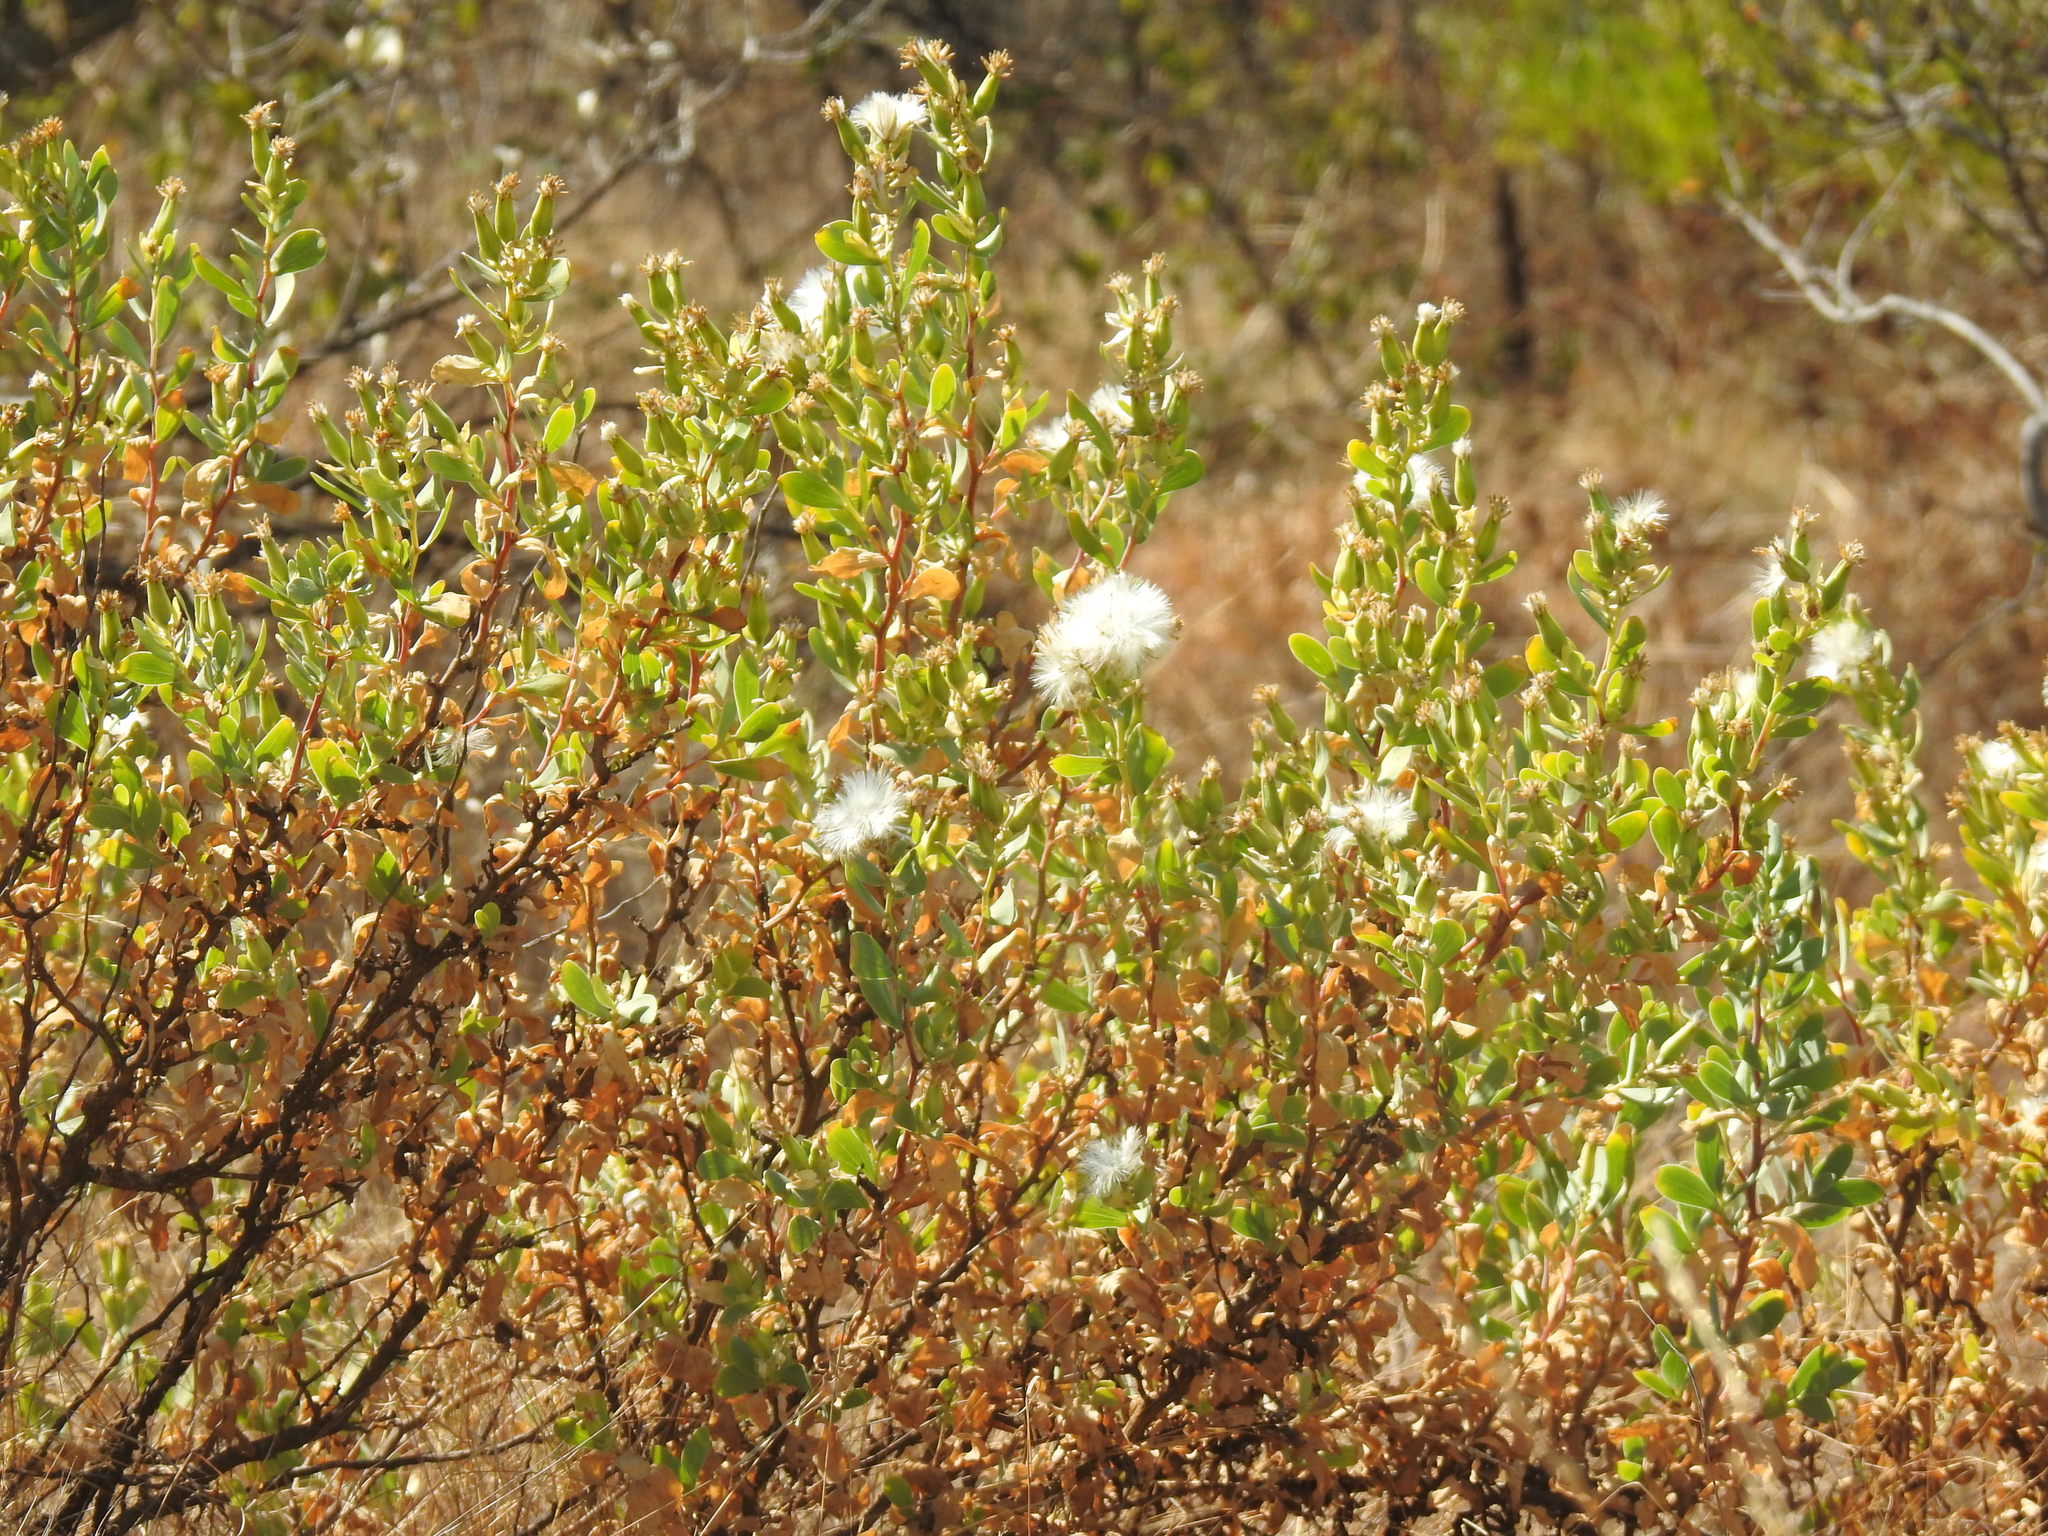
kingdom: Plantae
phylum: Tracheophyta
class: Magnoliopsida
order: Asterales
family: Asteraceae
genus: Lopholaena
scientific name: Lopholaena coriifolia
